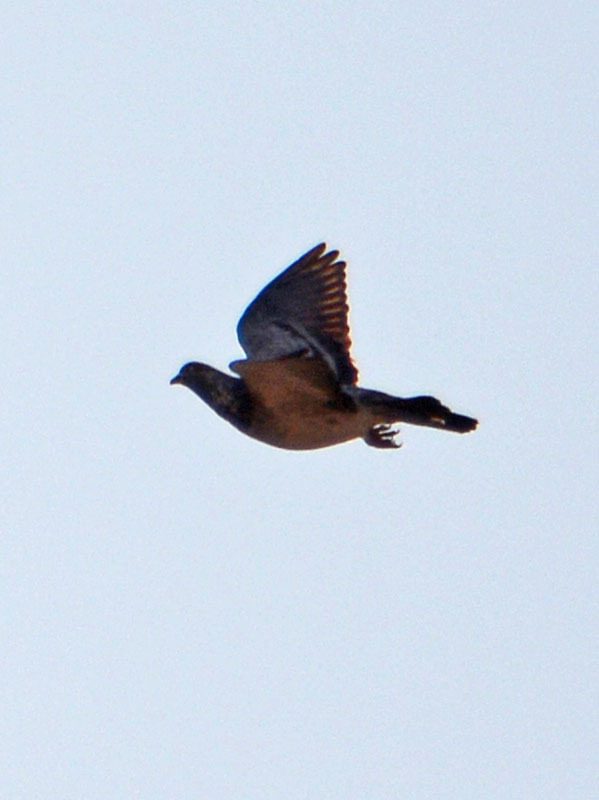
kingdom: Animalia
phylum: Chordata
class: Aves
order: Columbiformes
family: Columbidae
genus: Columba
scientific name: Columba livia
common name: Rock pigeon
